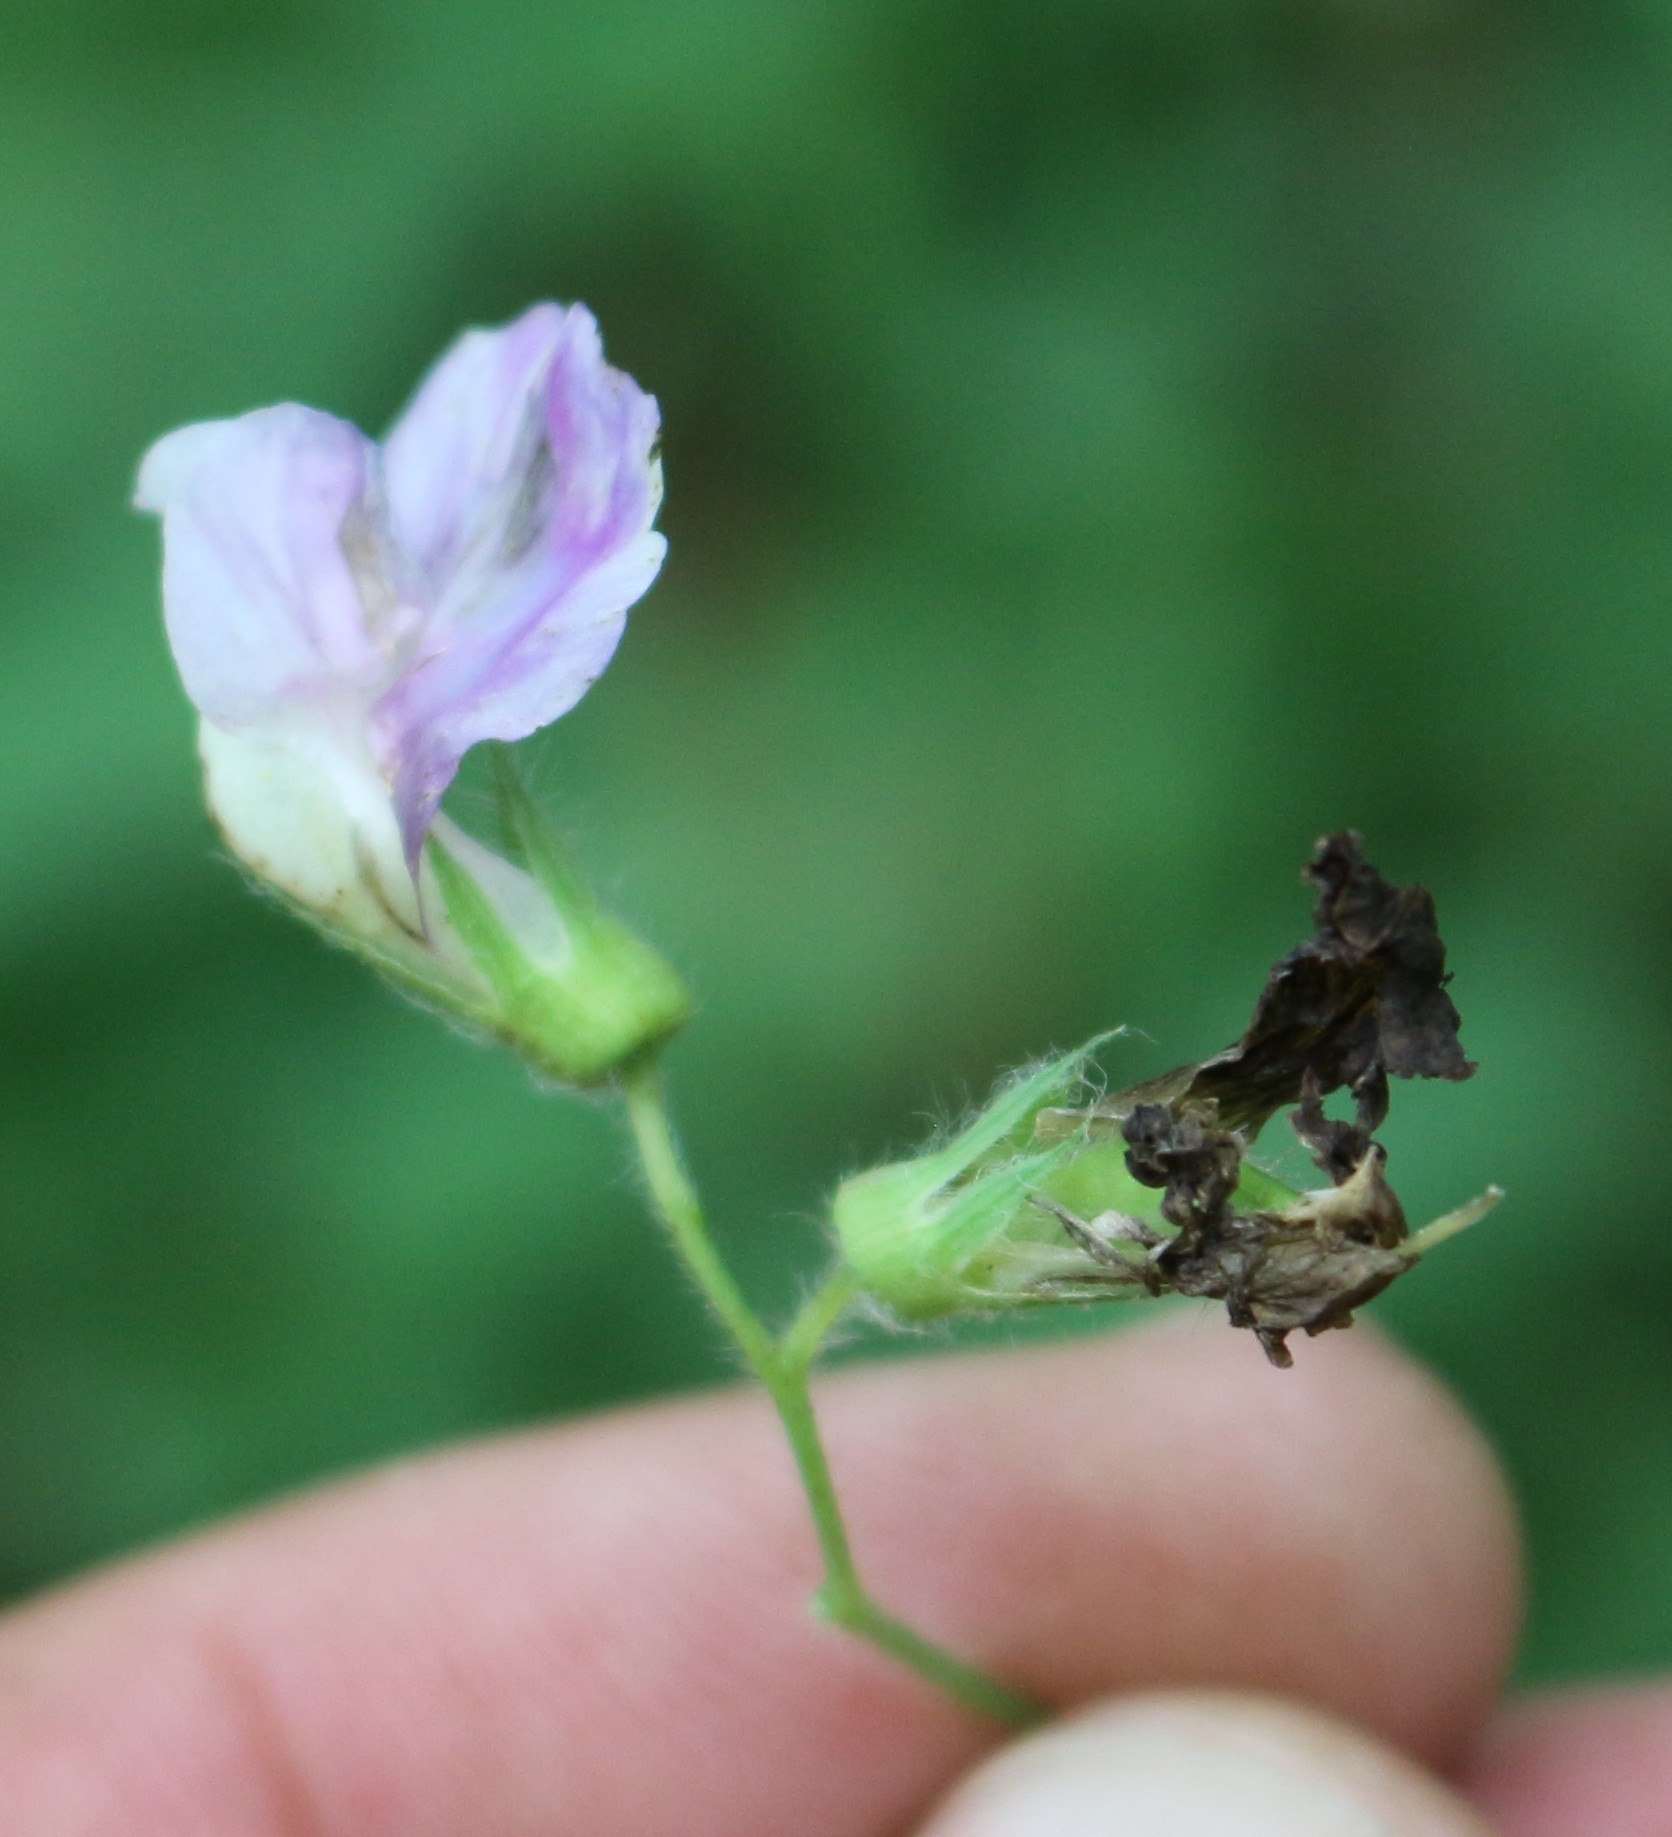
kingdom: Plantae
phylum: Tracheophyta
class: Magnoliopsida
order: Fabales
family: Fabaceae
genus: Lathyrus
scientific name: Lathyrus laxiflorus
